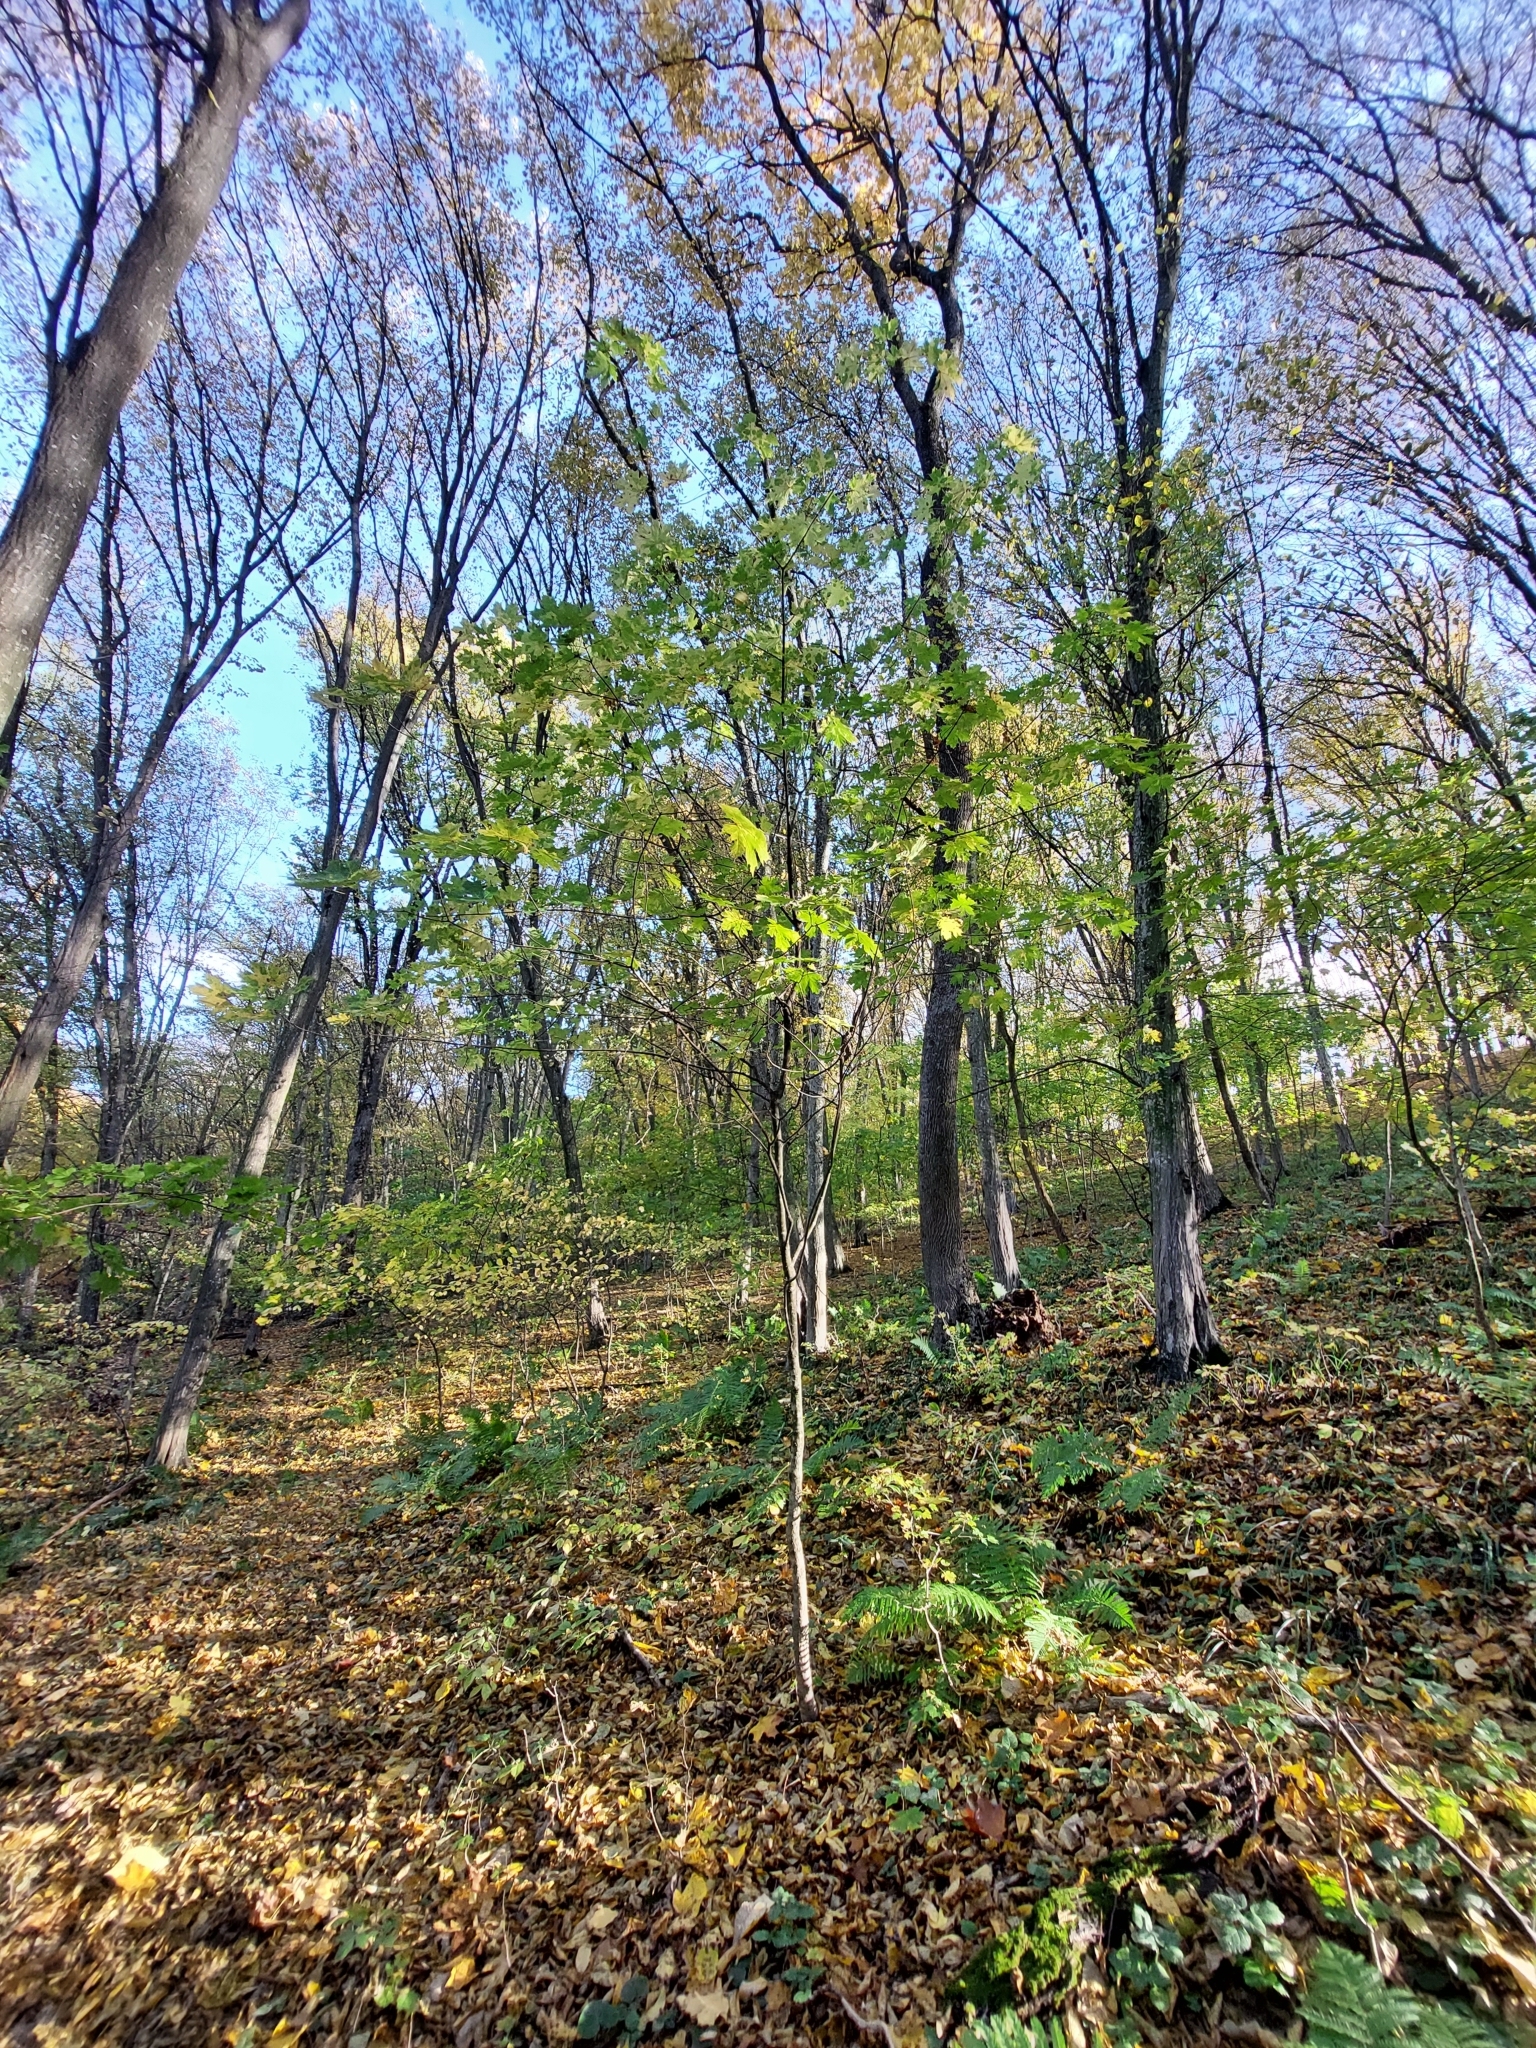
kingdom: Plantae
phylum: Tracheophyta
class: Magnoliopsida
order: Sapindales
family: Sapindaceae
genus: Acer
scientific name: Acer platanoides
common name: Norway maple
